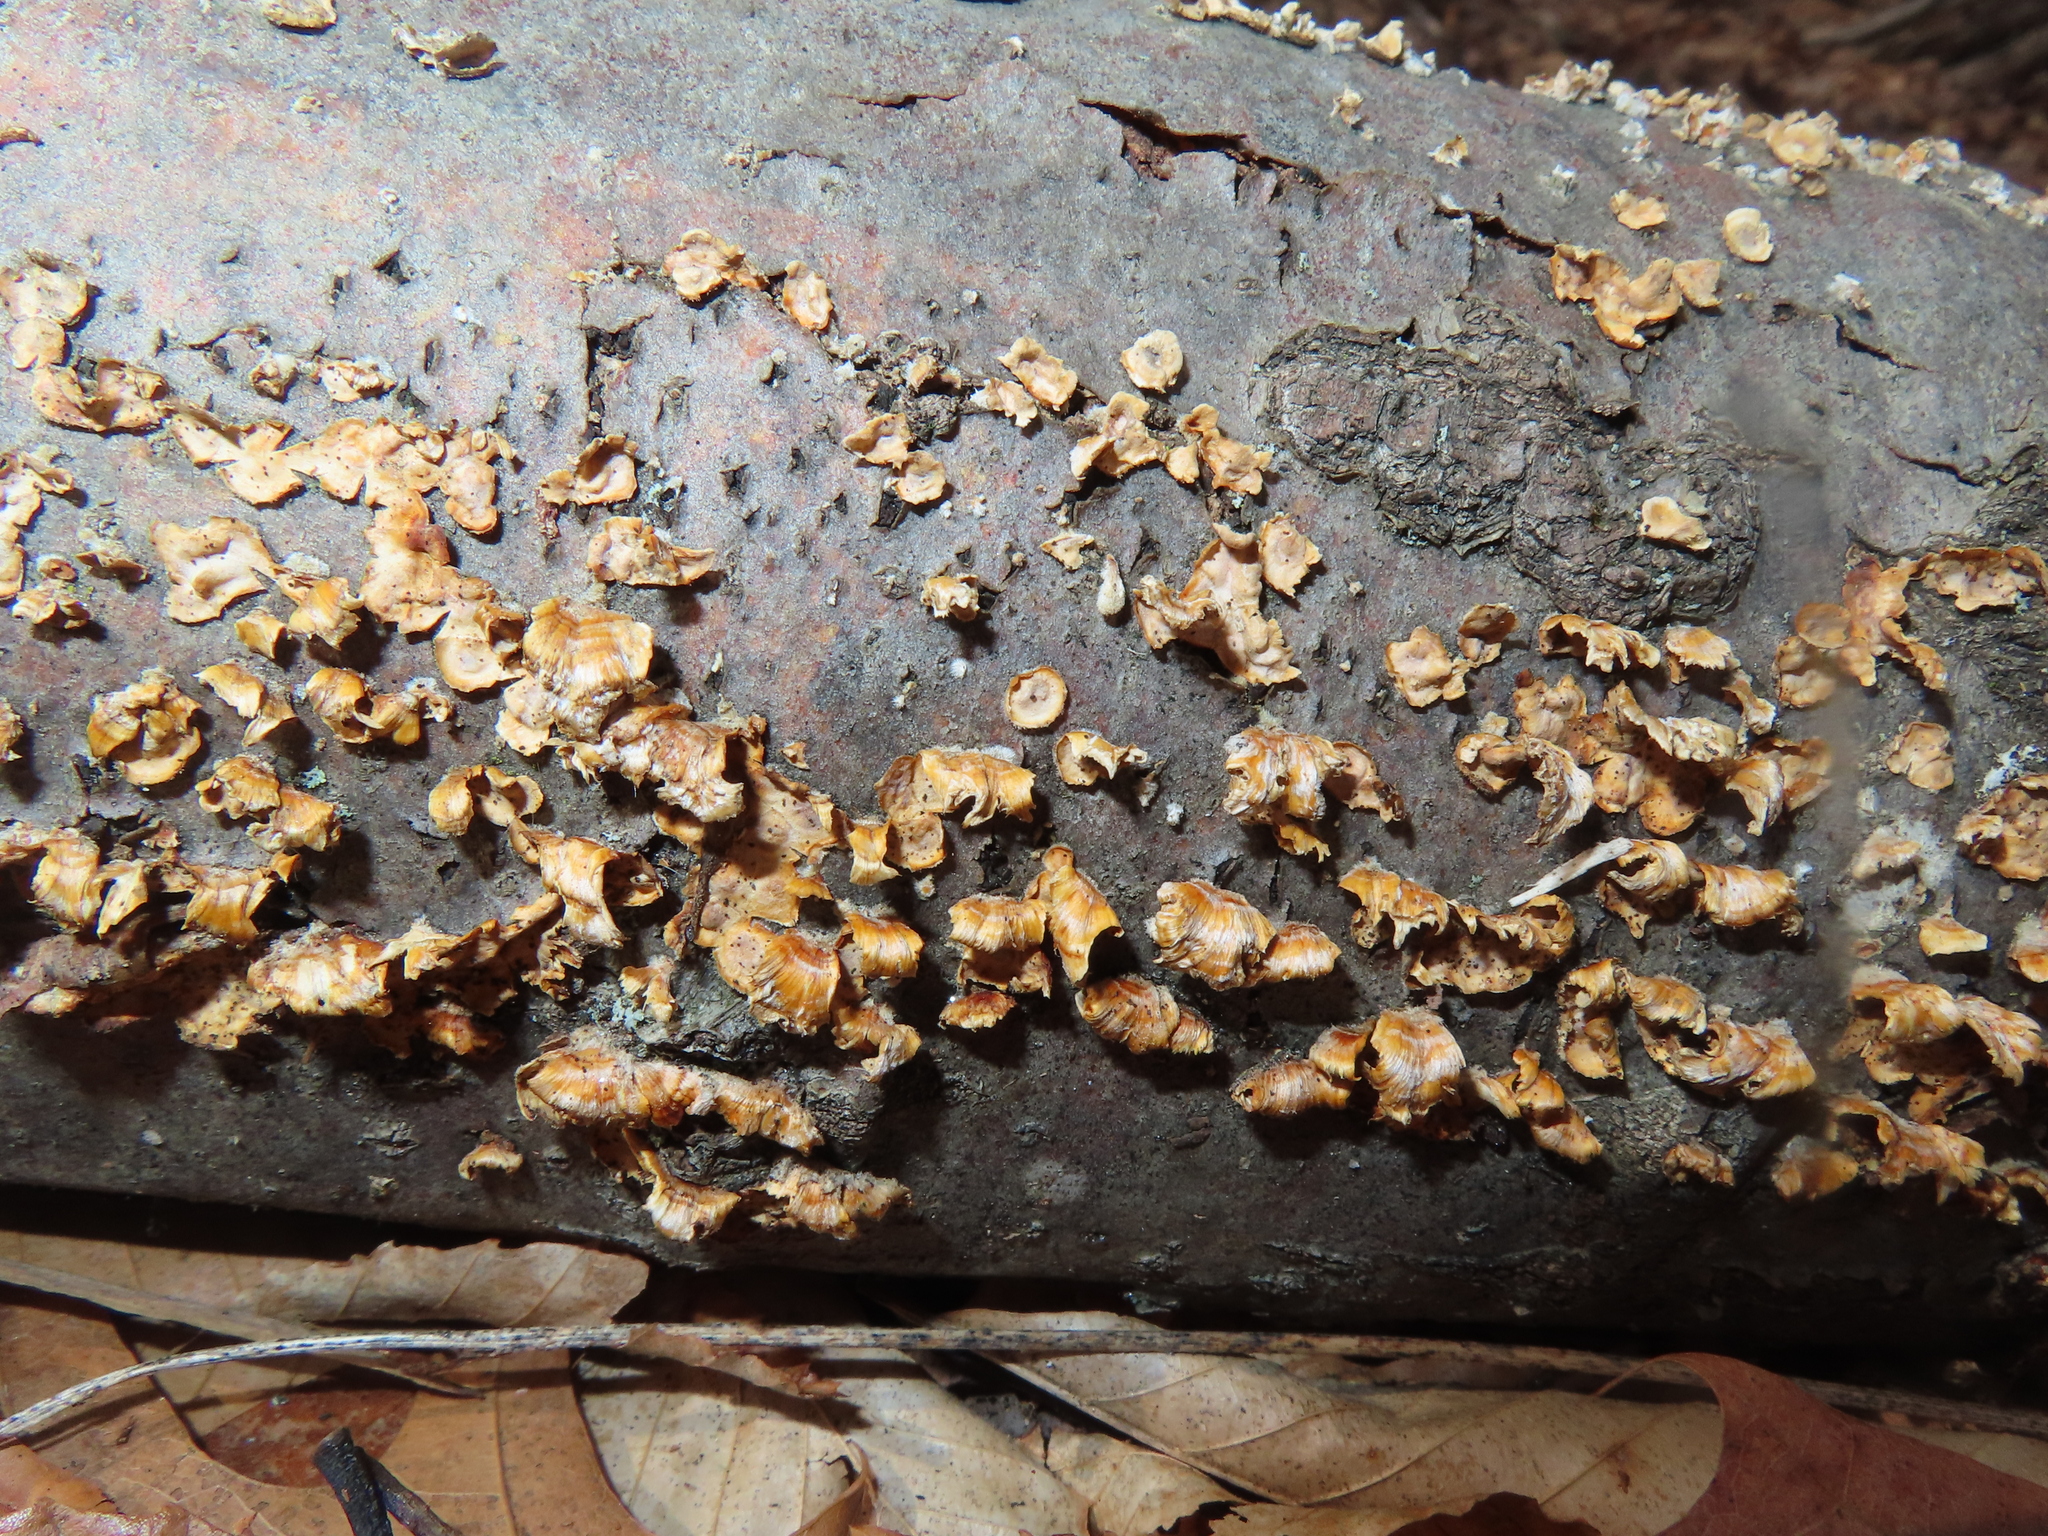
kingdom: Fungi
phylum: Basidiomycota
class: Agaricomycetes
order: Russulales
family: Stereaceae
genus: Stereum
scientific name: Stereum complicatum
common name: Crowded parchment
